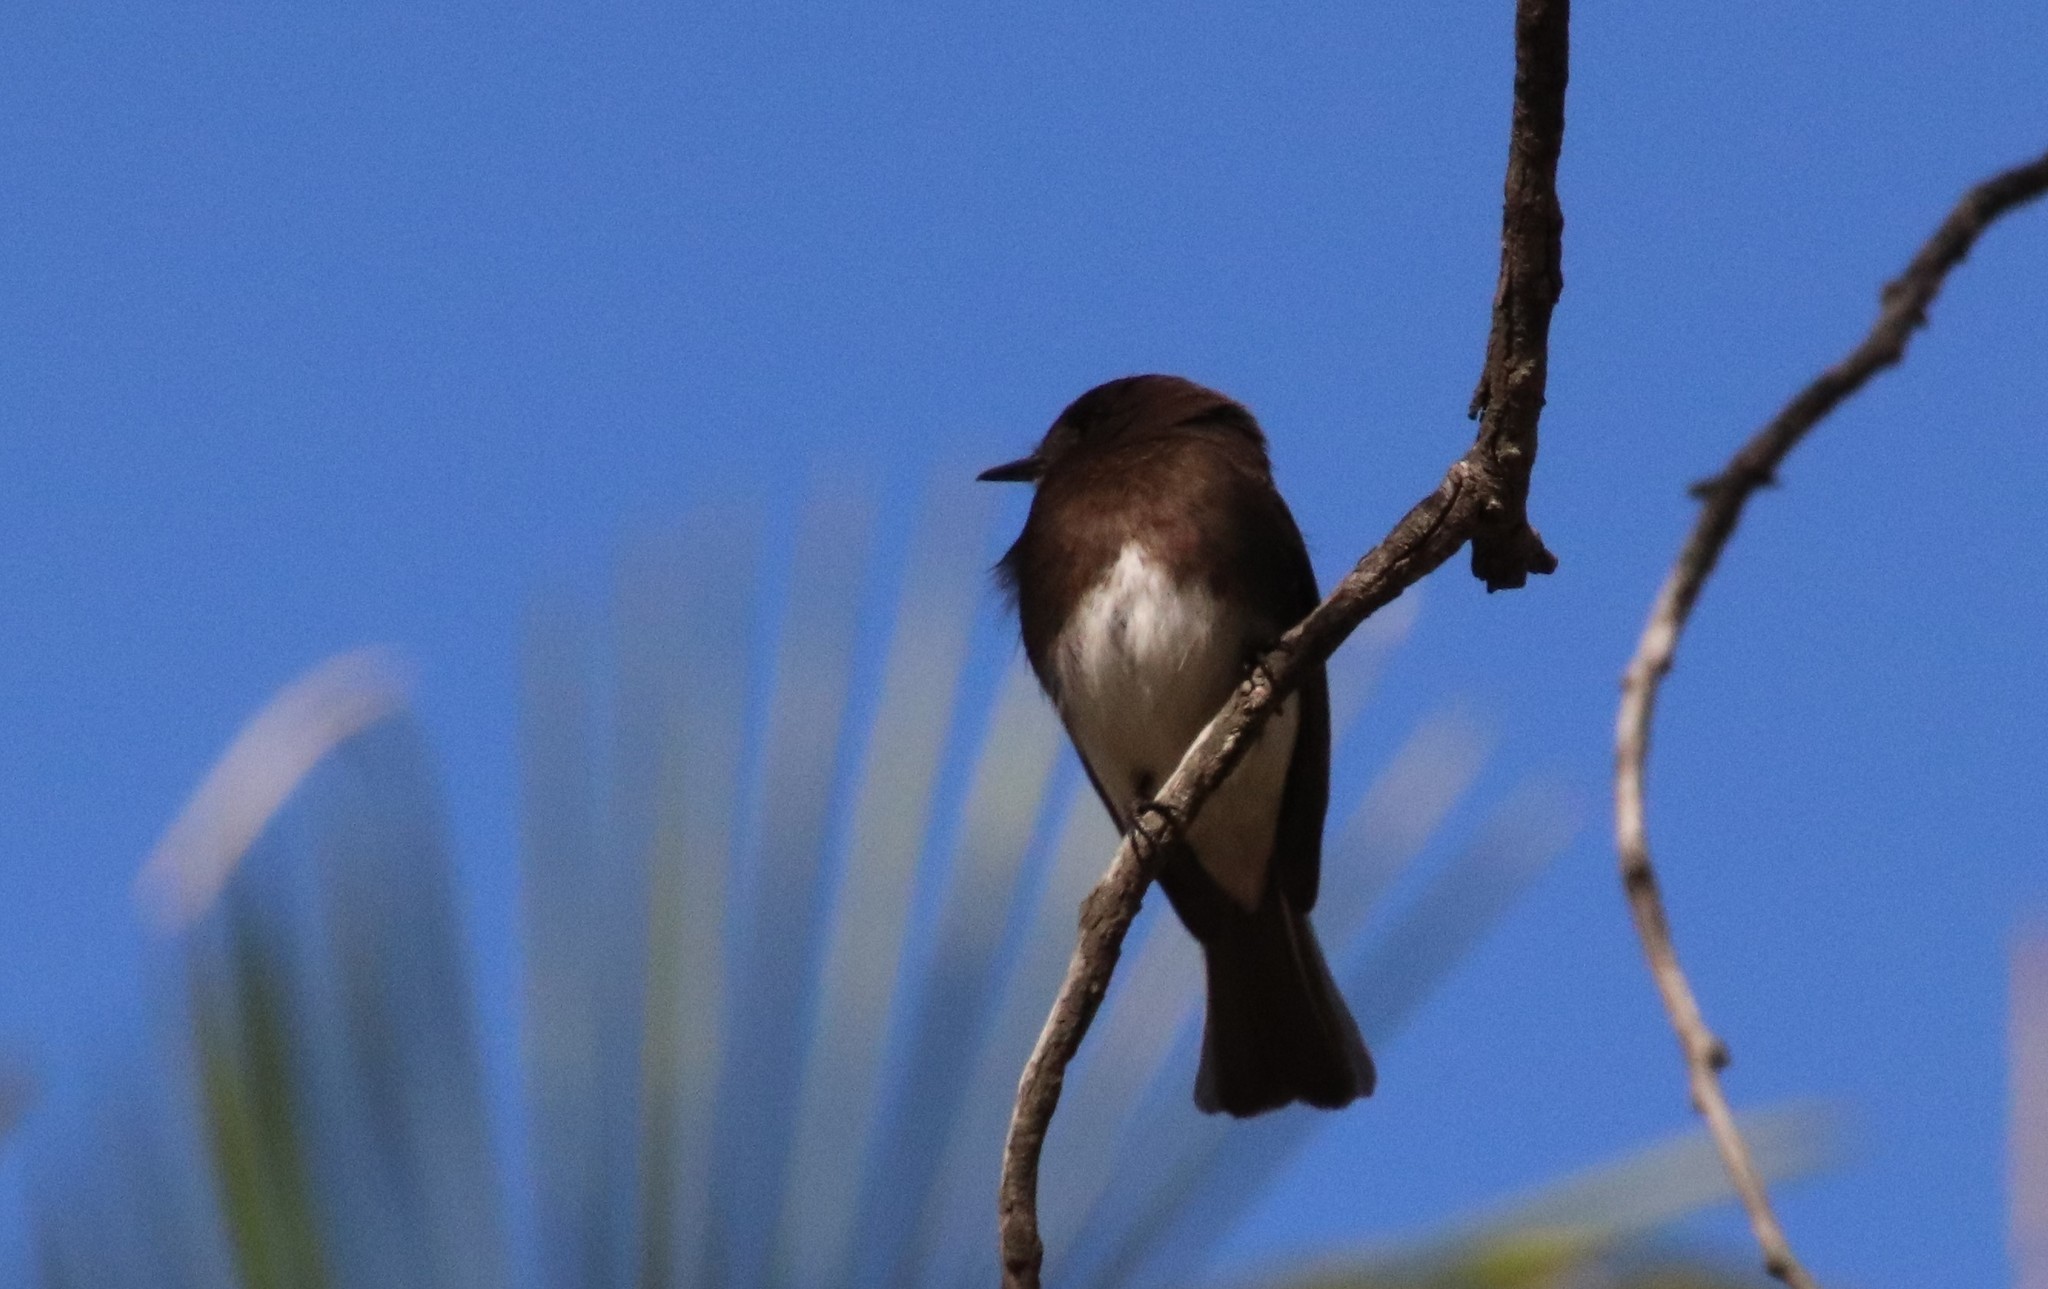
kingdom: Animalia
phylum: Chordata
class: Aves
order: Passeriformes
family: Tyrannidae
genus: Sayornis
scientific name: Sayornis nigricans
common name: Black phoebe
